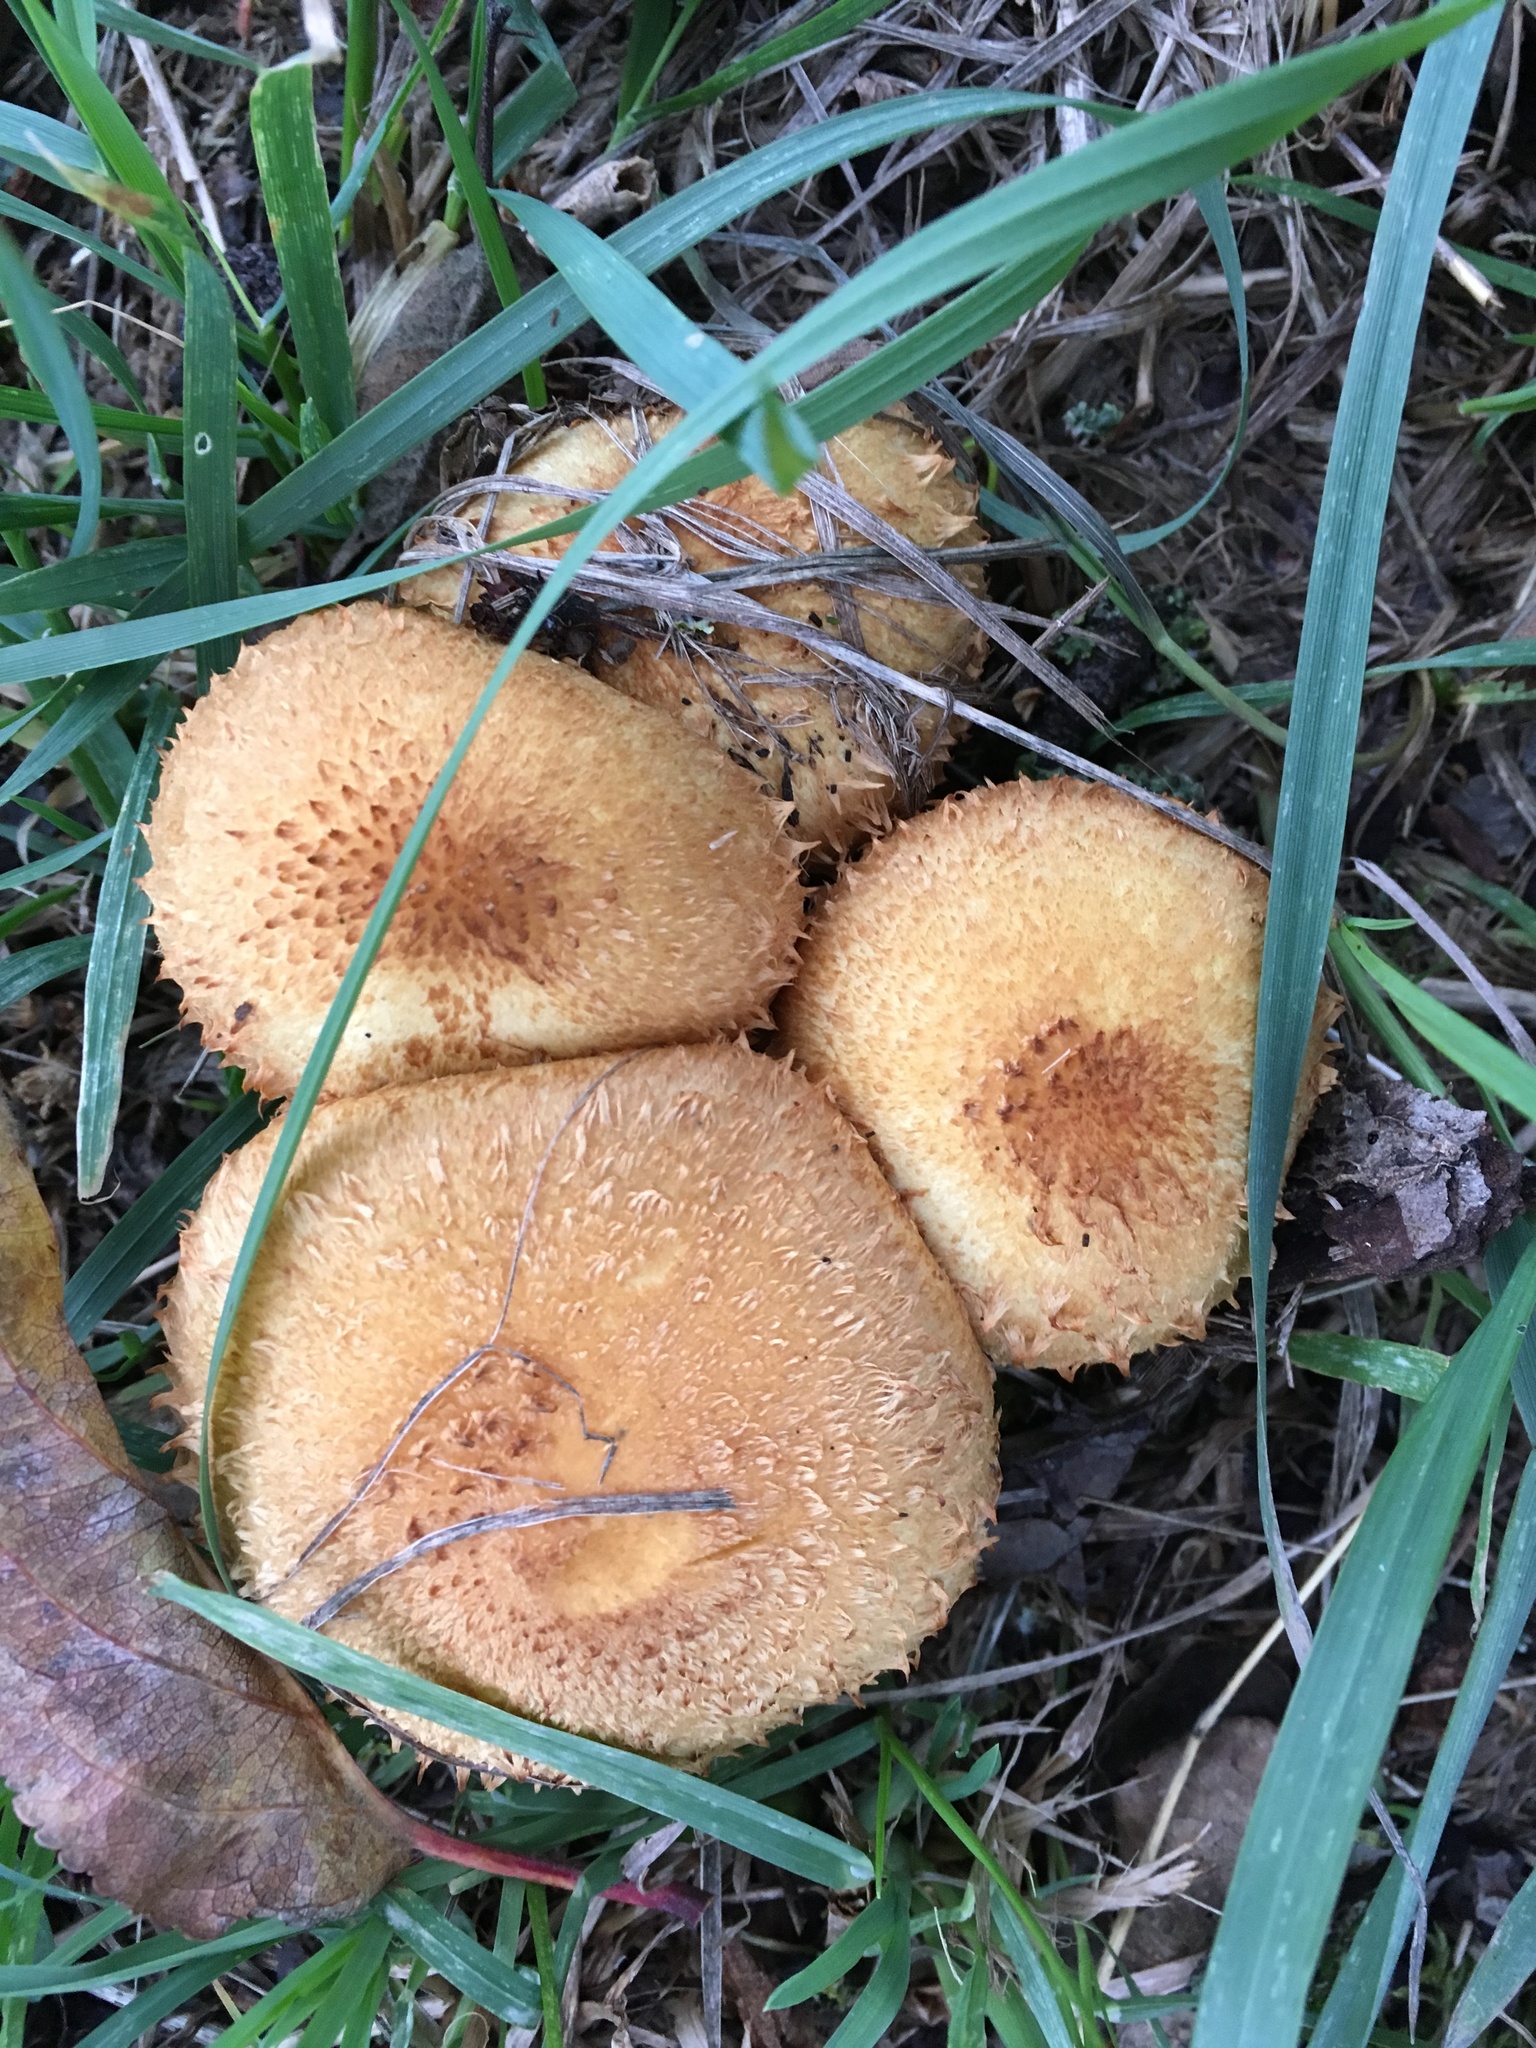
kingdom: Fungi
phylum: Basidiomycota
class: Agaricomycetes
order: Agaricales
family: Strophariaceae
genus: Pholiota
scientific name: Pholiota squarrosa
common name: Shaggy pholiota
